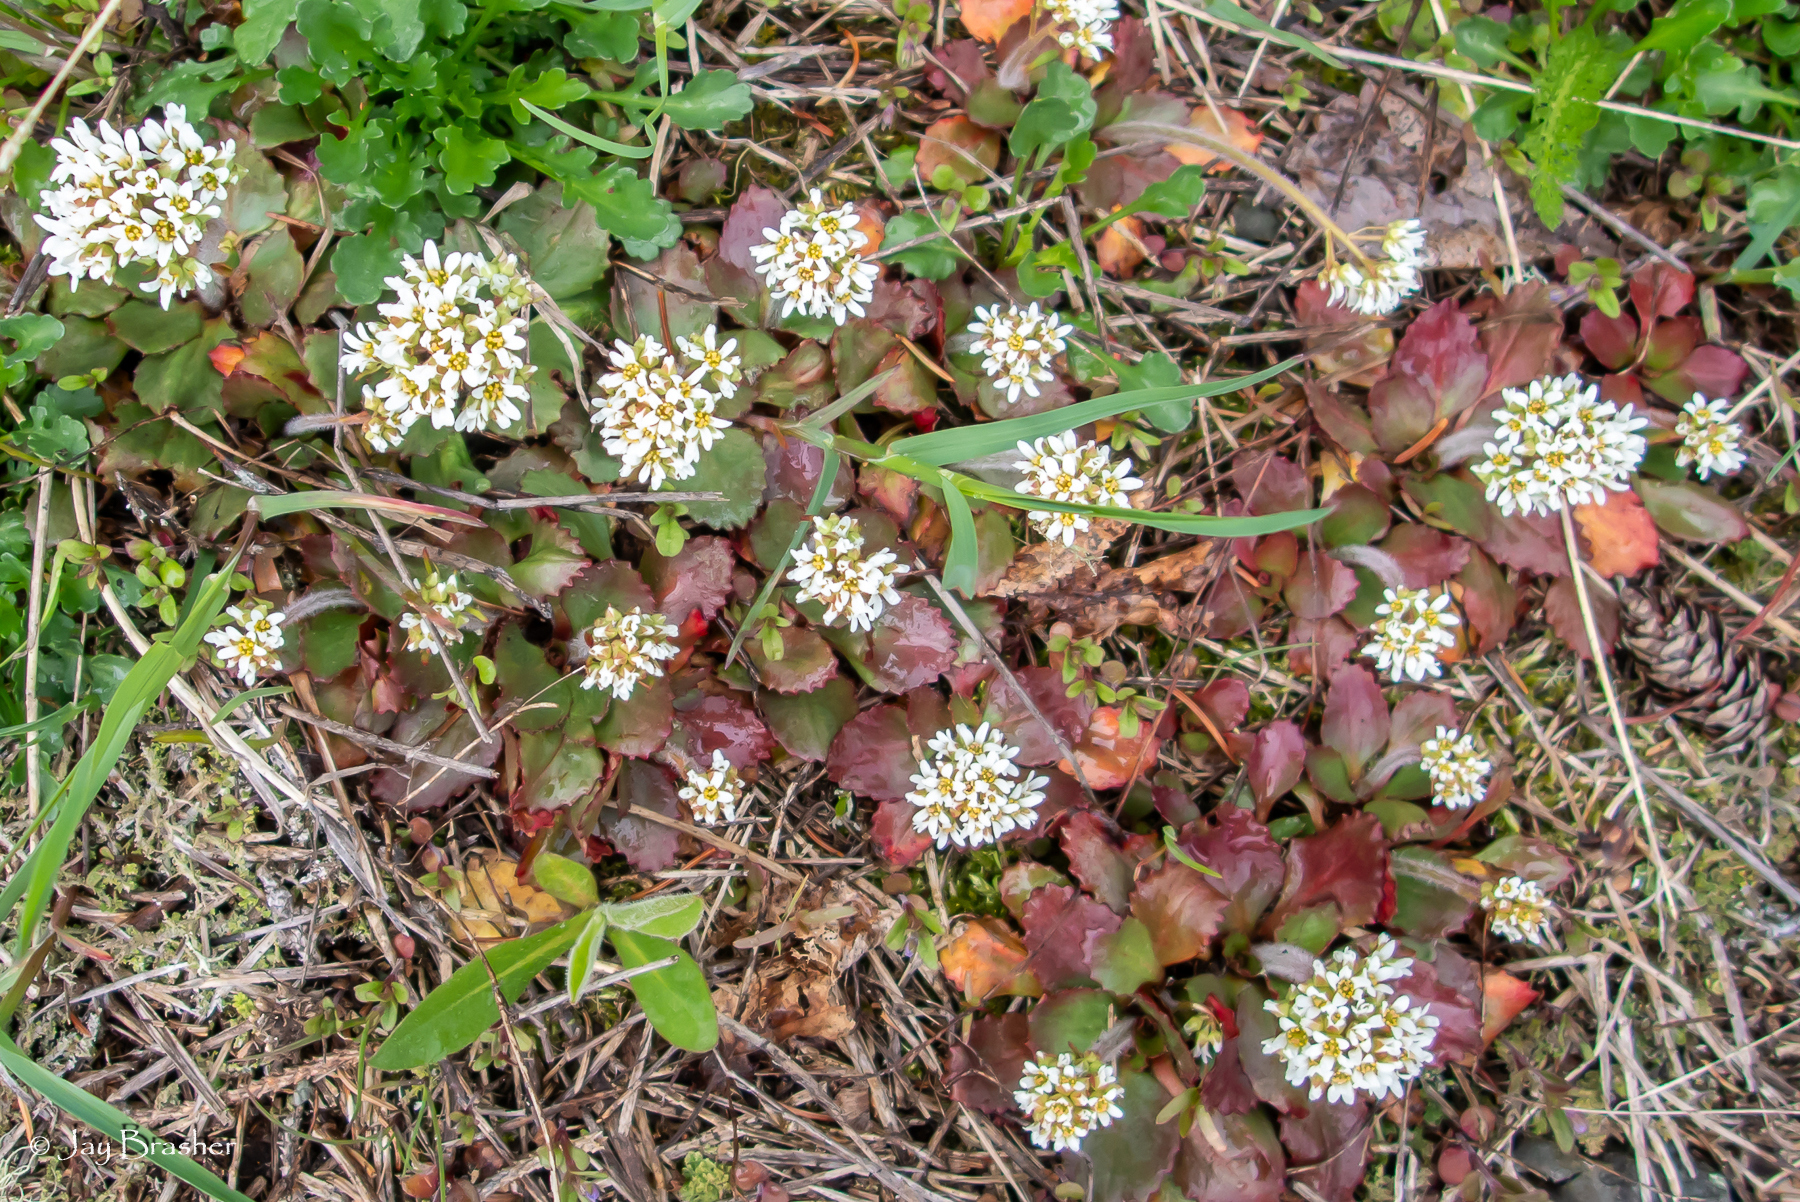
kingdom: Plantae
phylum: Tracheophyta
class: Magnoliopsida
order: Saxifragales
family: Saxifragaceae
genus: Micranthes
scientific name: Micranthes virginiensis
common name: Early saxifrage
